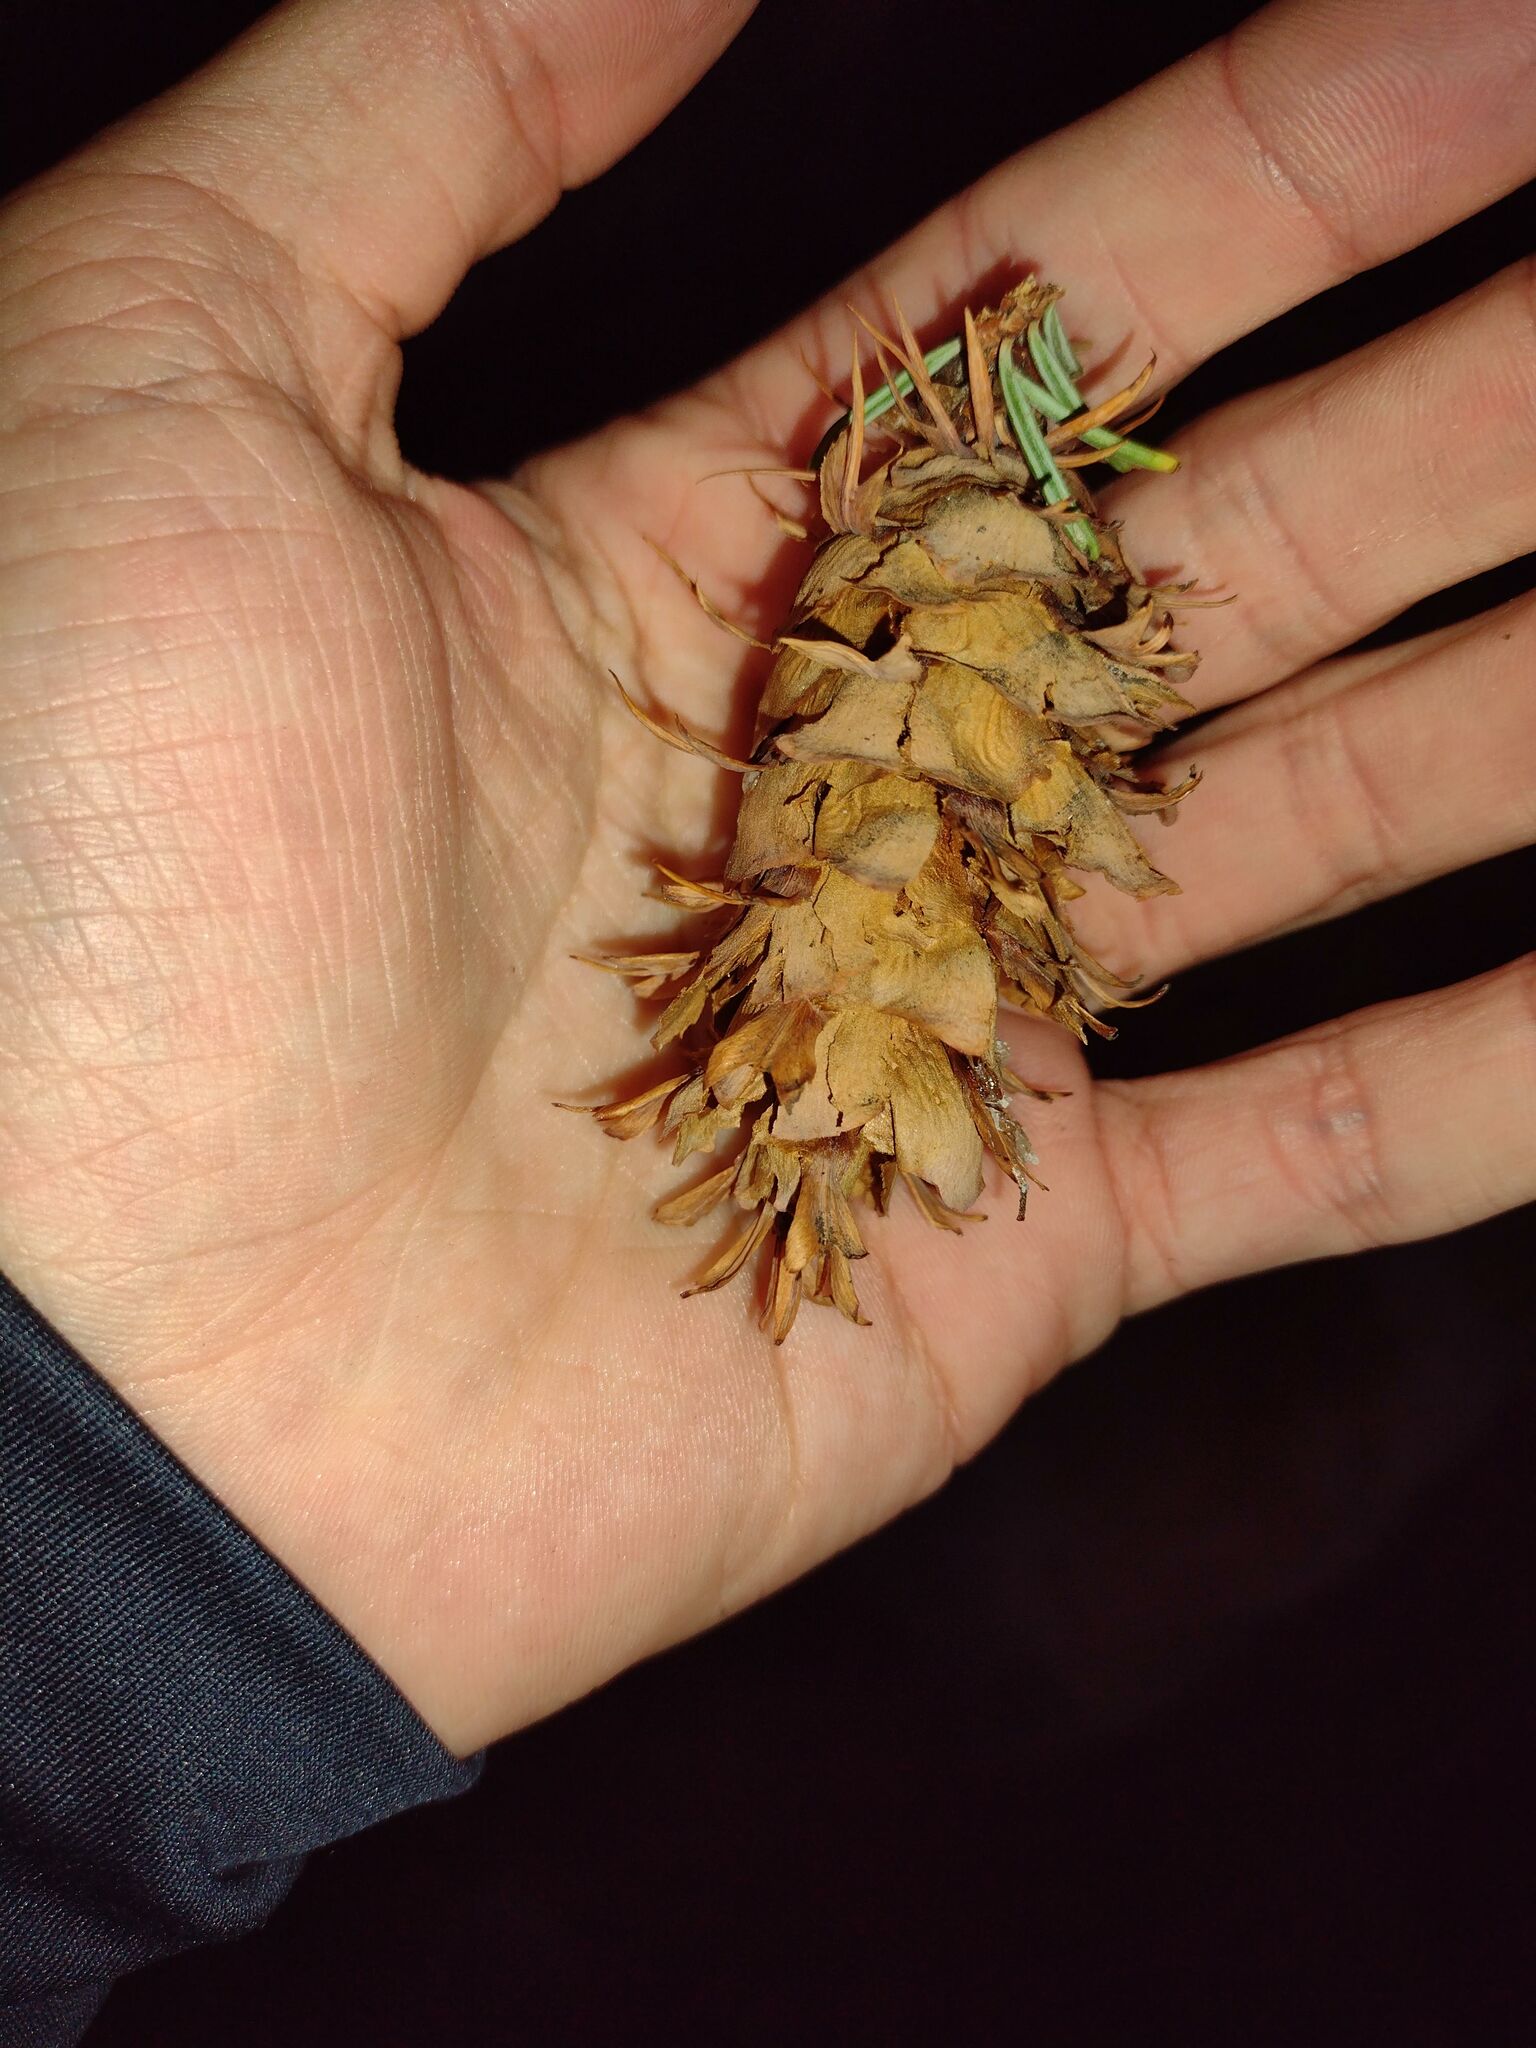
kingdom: Plantae
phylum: Tracheophyta
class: Pinopsida
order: Pinales
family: Pinaceae
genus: Pseudotsuga
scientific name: Pseudotsuga menziesii
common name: Douglas fir
